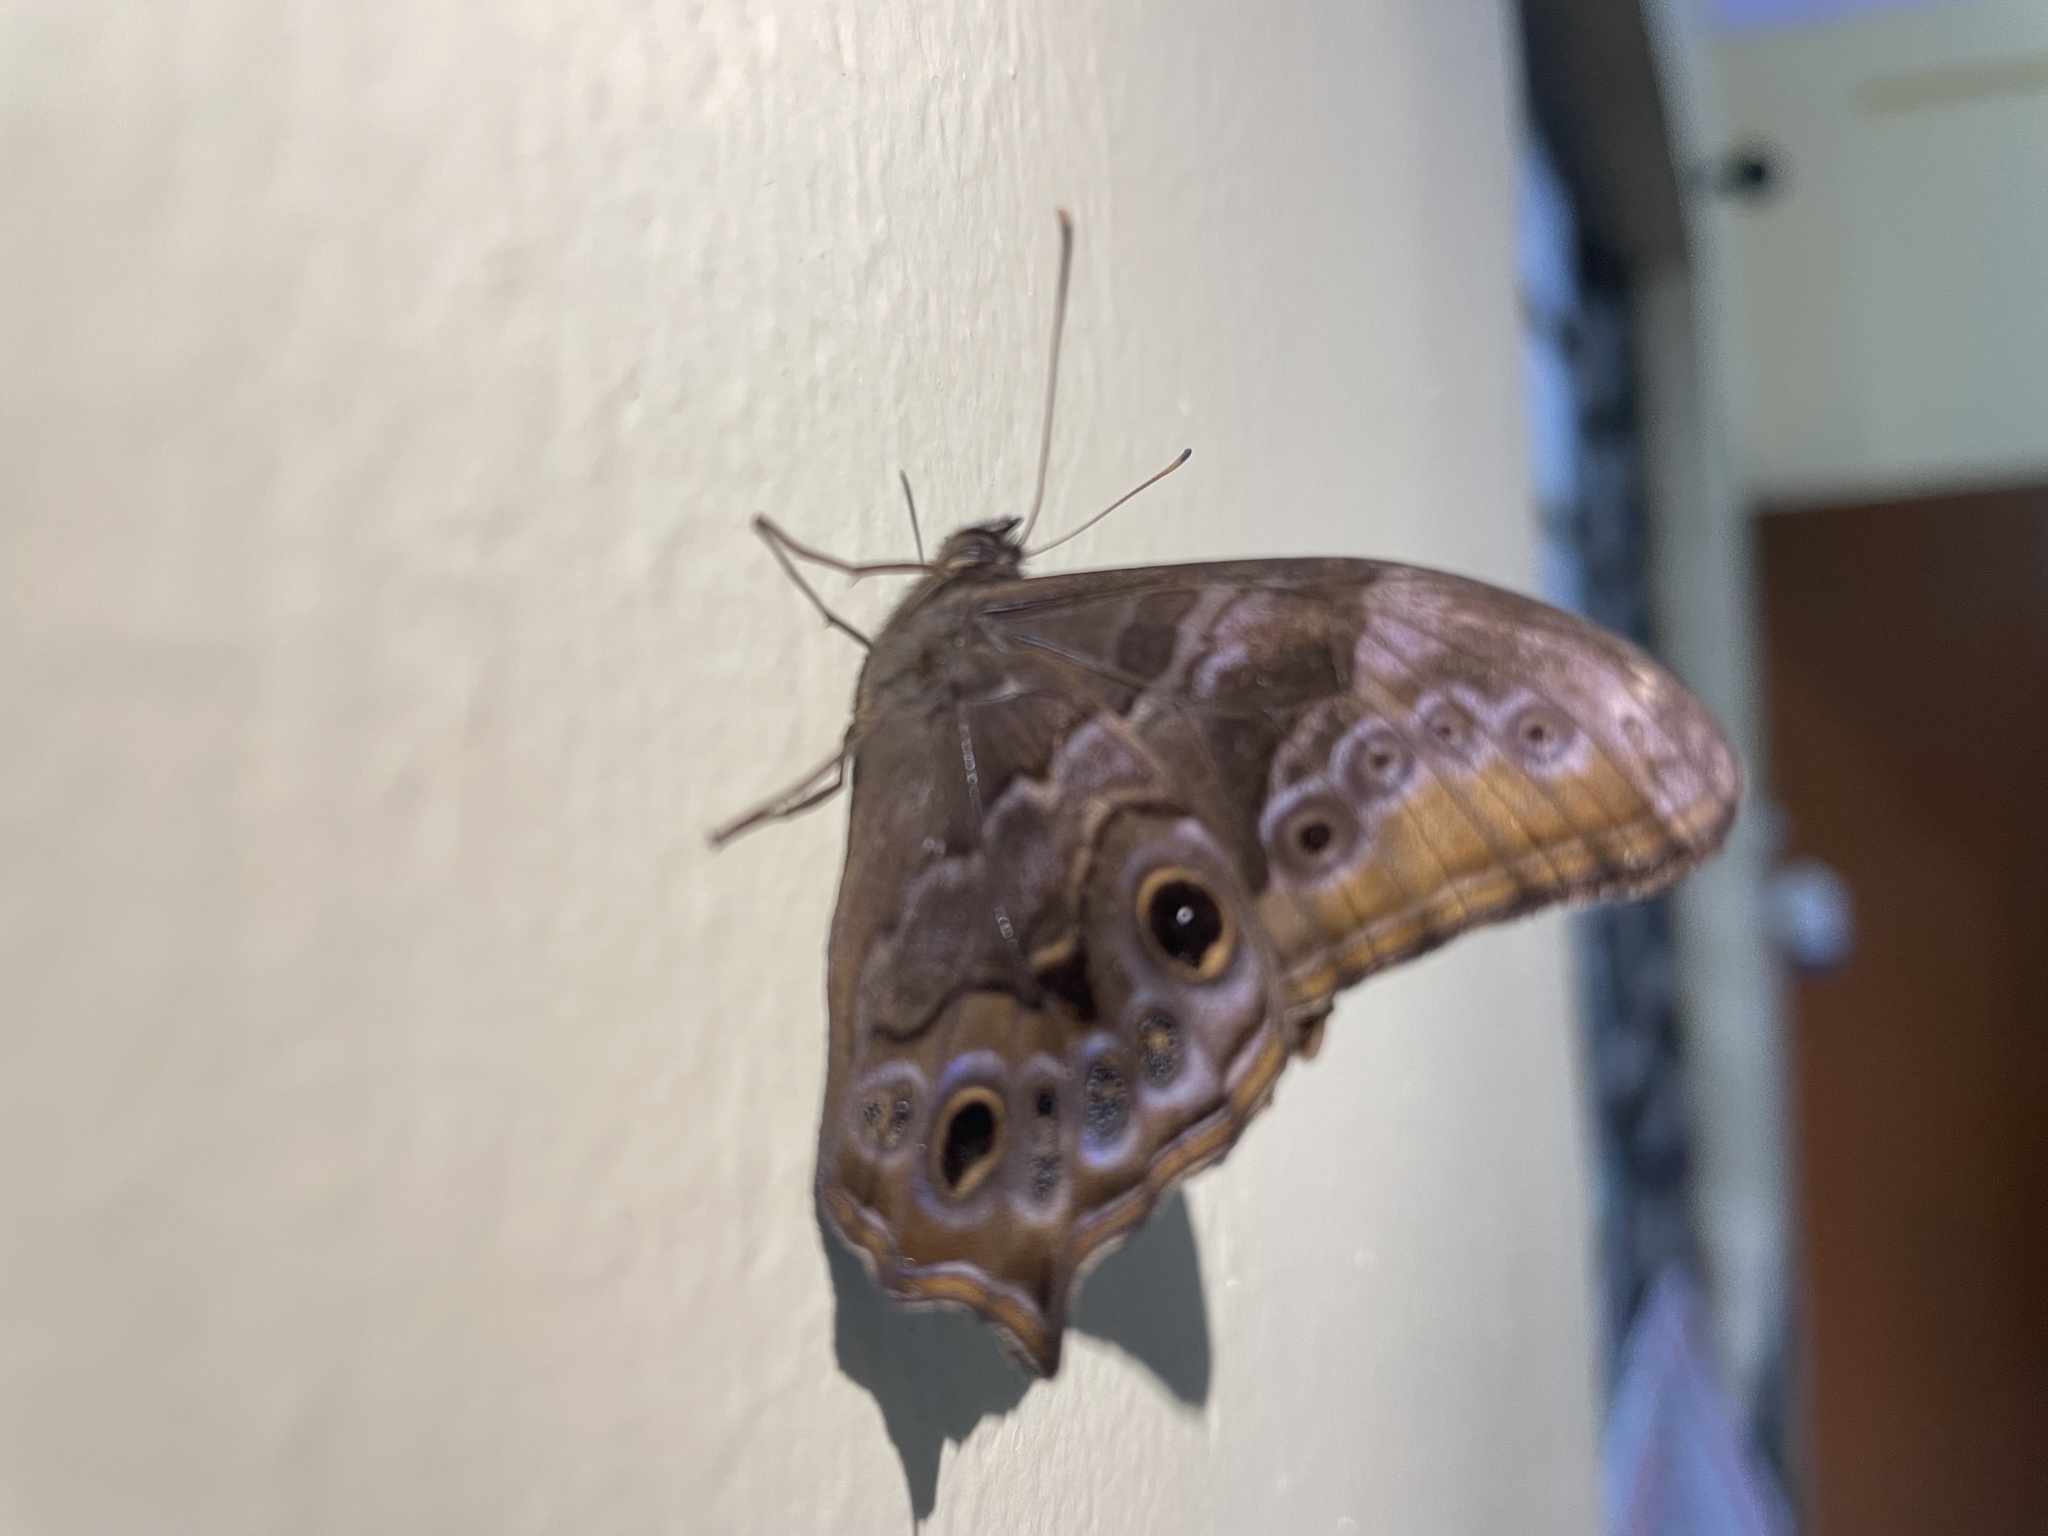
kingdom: Animalia
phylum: Arthropoda
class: Insecta
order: Lepidoptera
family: Nymphalidae
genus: Lethe
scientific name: Lethe drypetis
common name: Tamil treebrown
